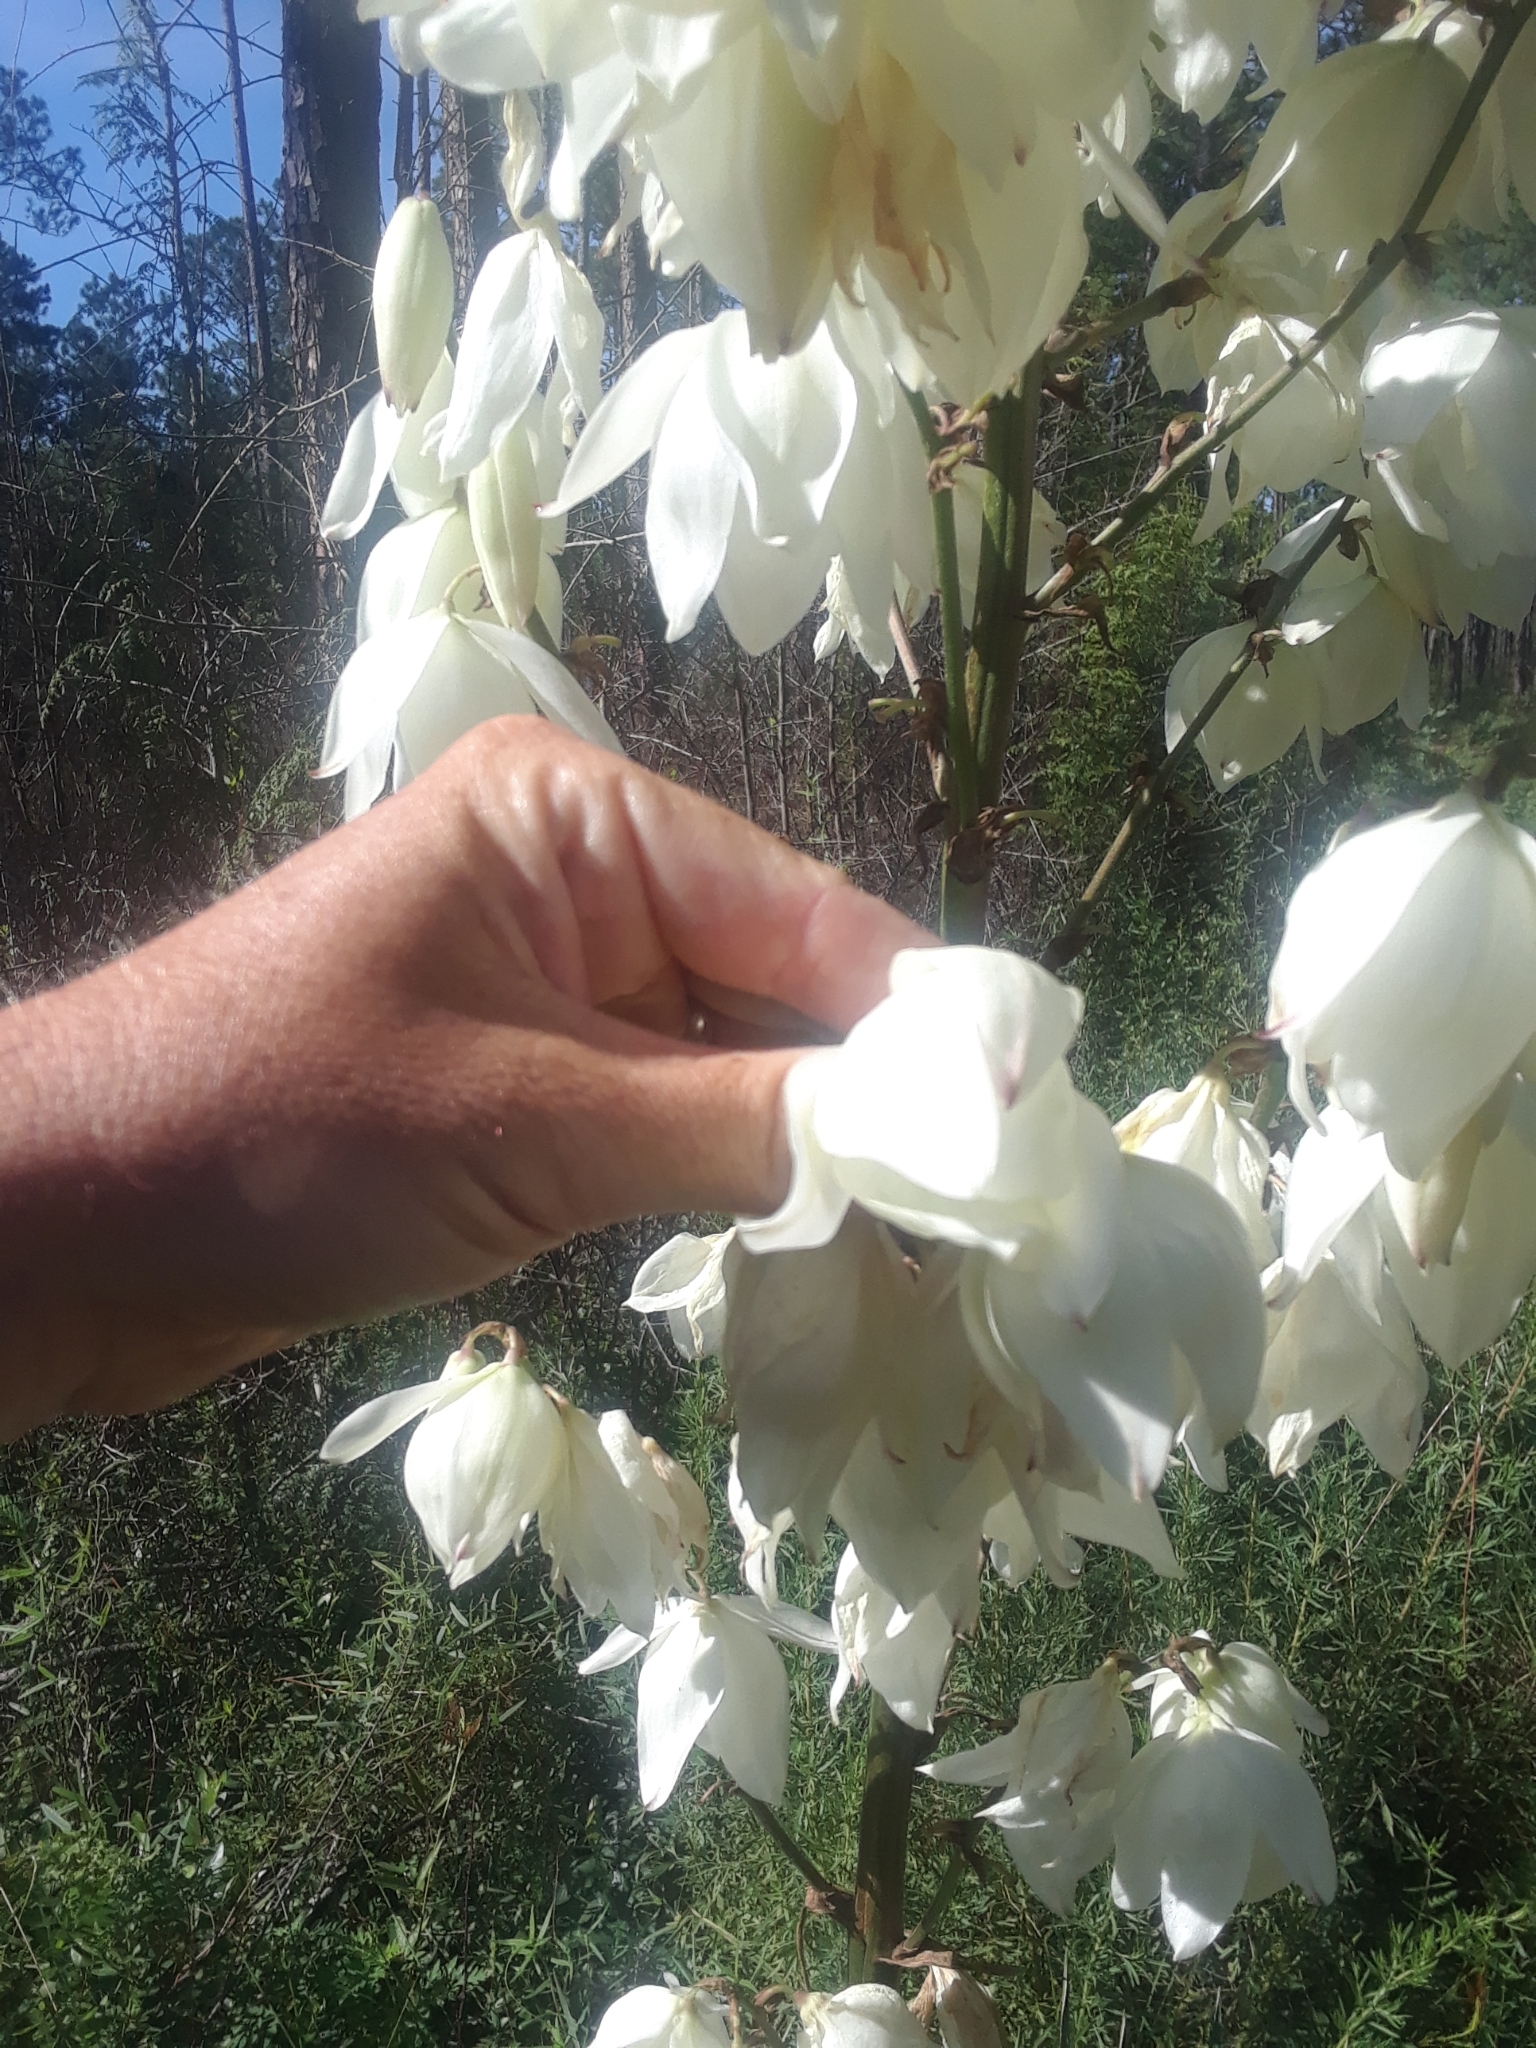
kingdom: Plantae
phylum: Tracheophyta
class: Liliopsida
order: Asparagales
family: Asparagaceae
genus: Yucca
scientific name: Yucca filamentosa
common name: Adam's-needle
